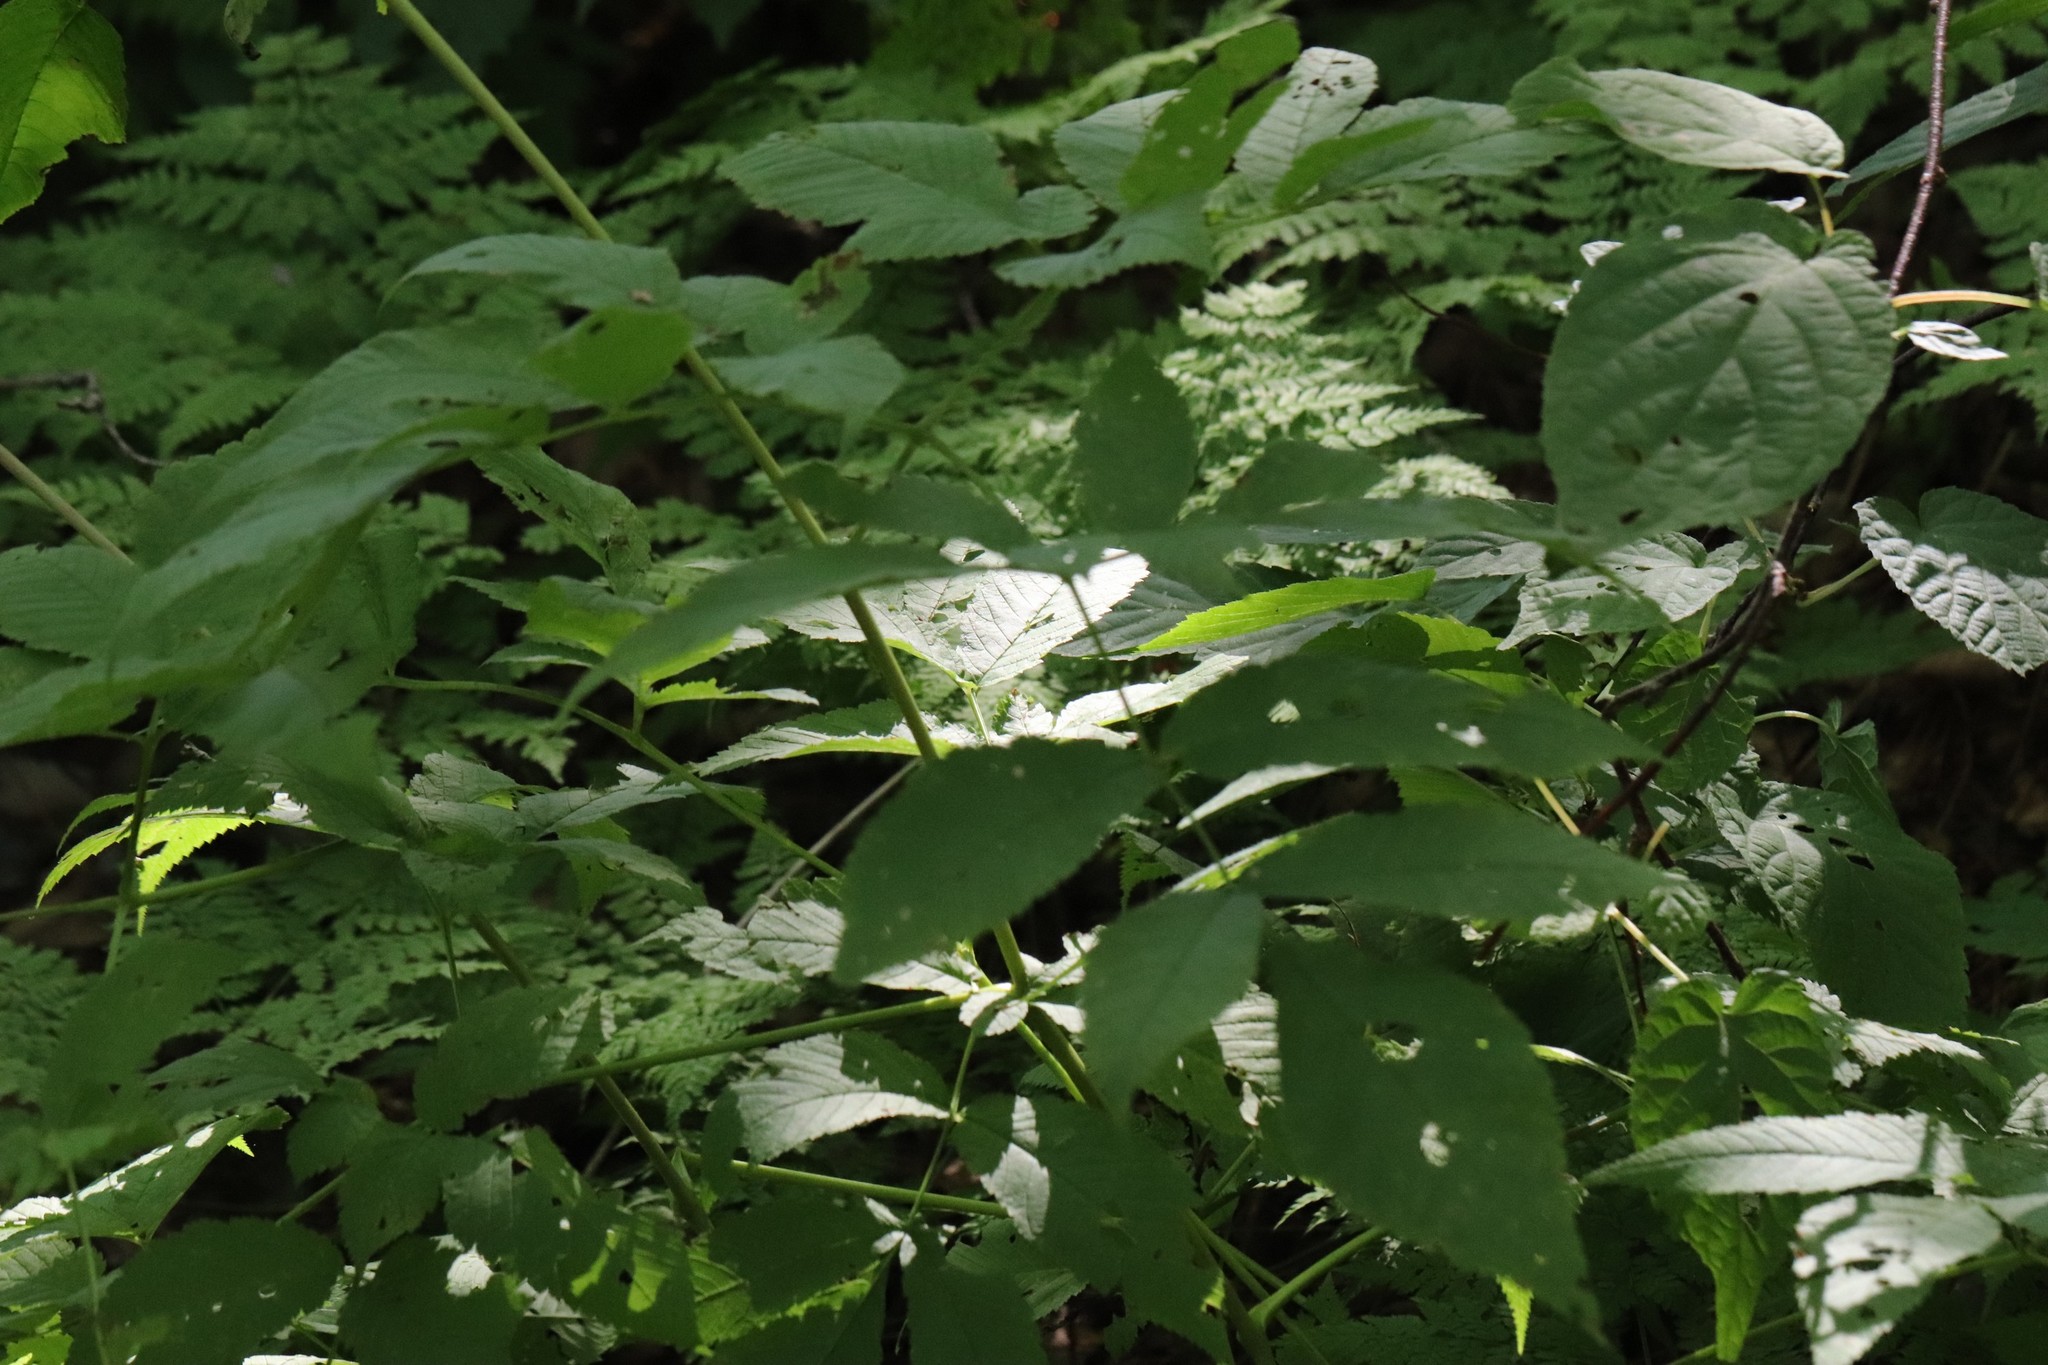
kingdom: Plantae
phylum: Tracheophyta
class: Magnoliopsida
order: Rosales
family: Rosaceae
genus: Aruncus
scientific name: Aruncus dioicus
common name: Buck's-beard
